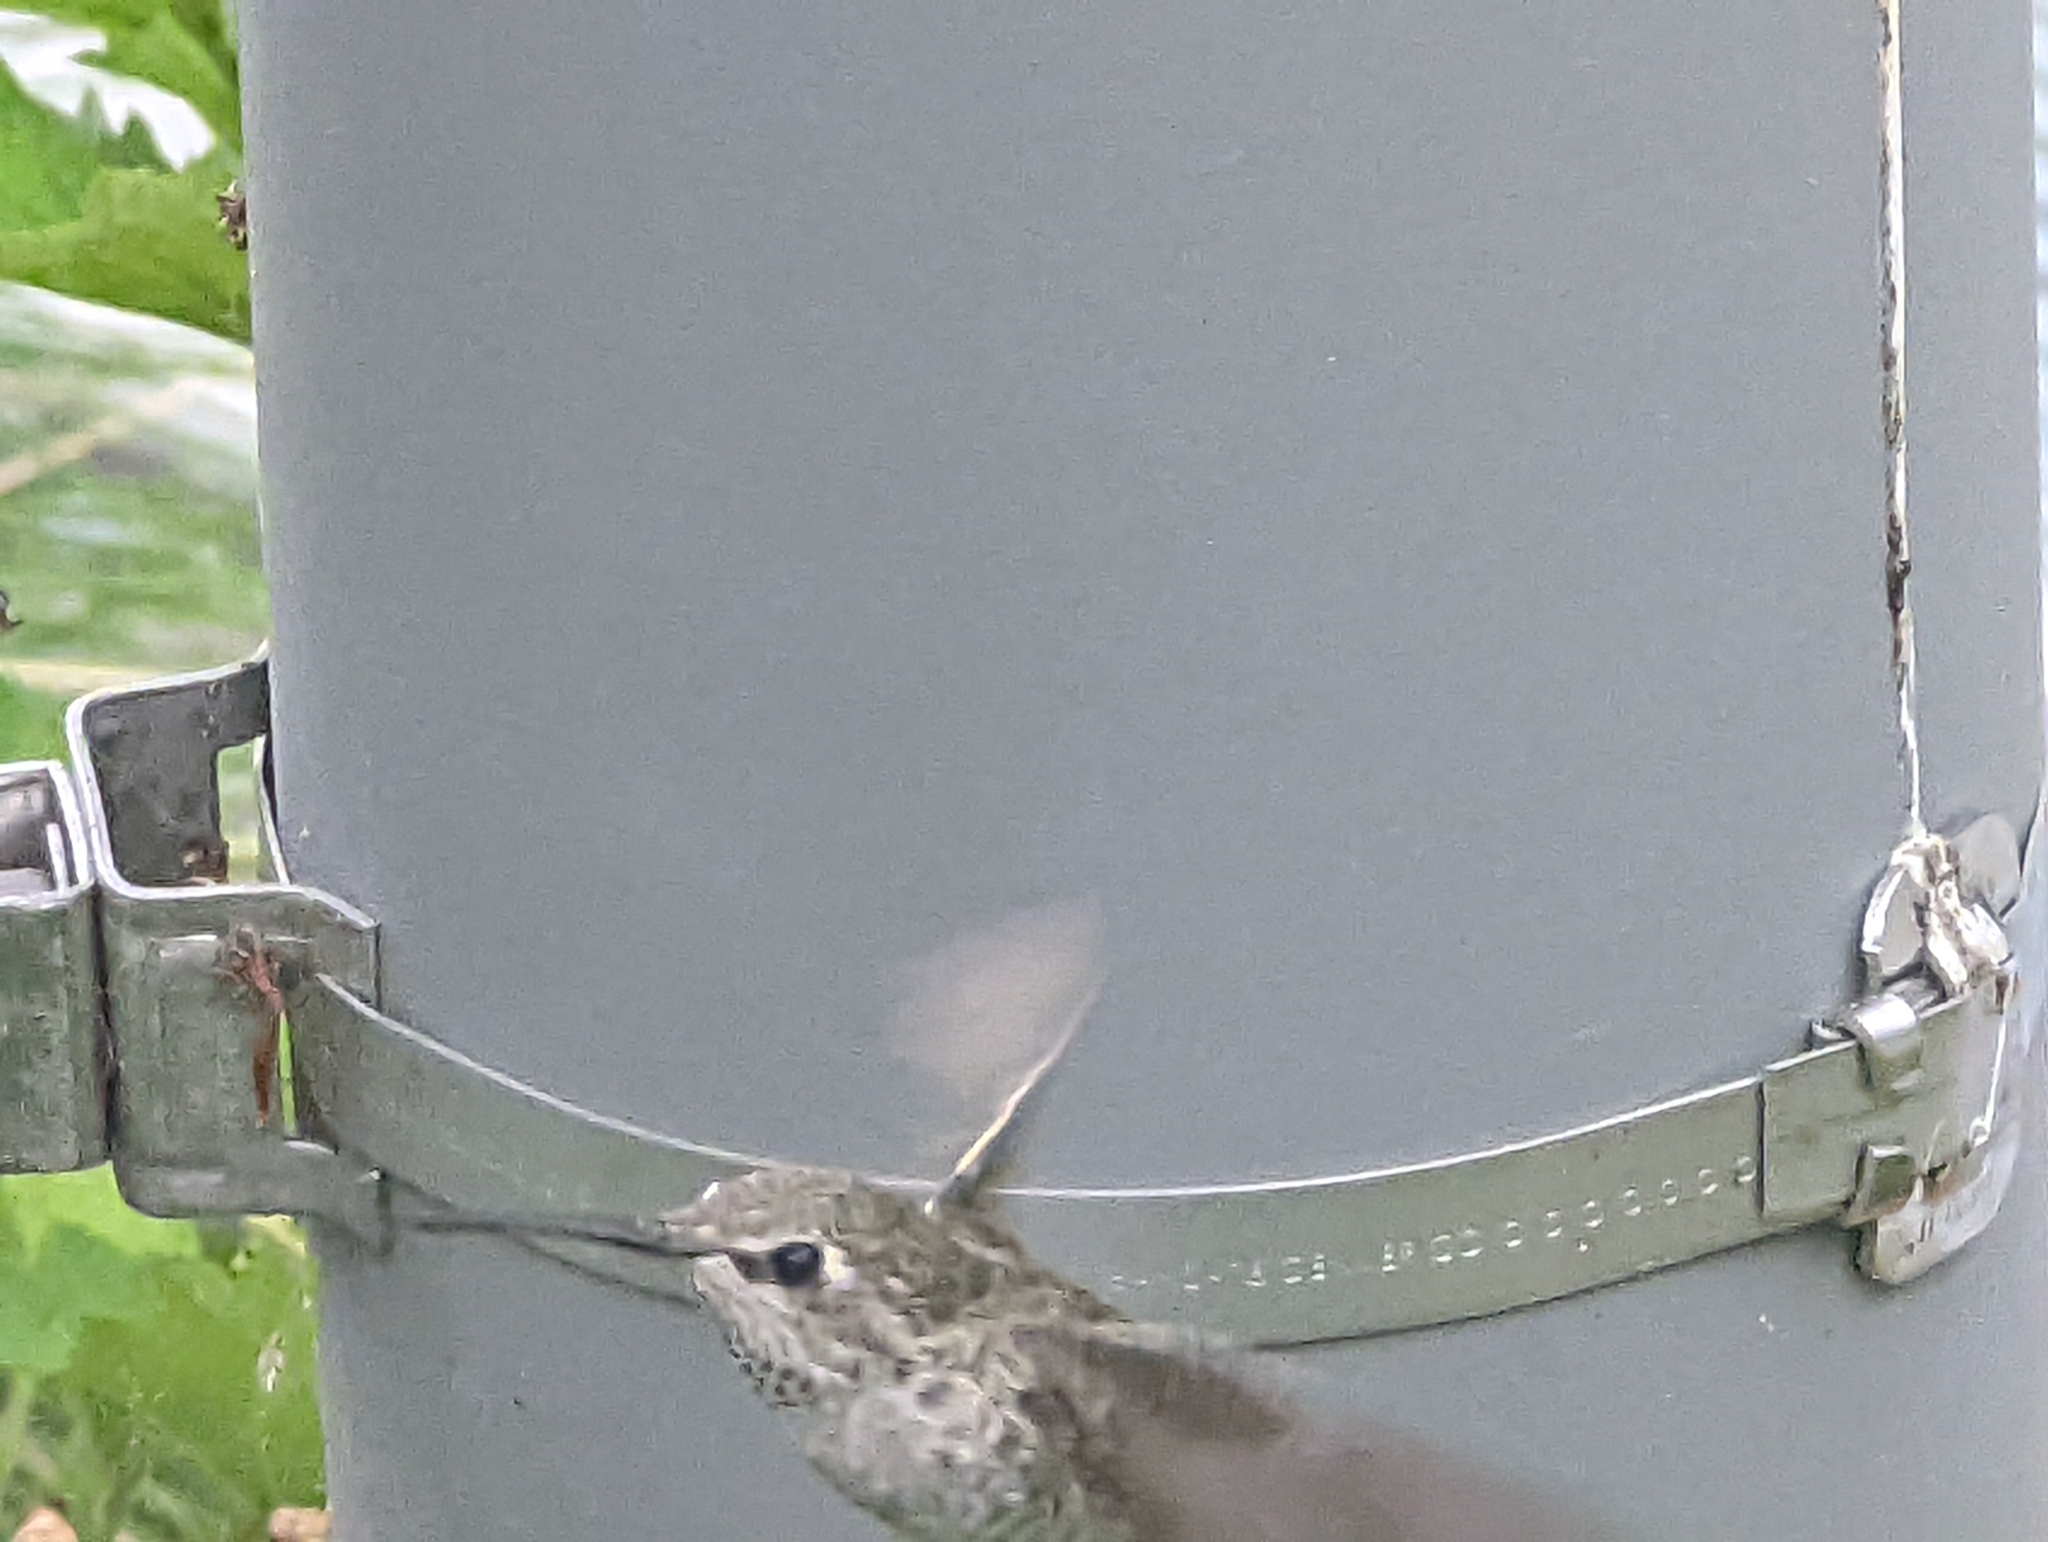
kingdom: Animalia
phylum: Chordata
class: Aves
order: Apodiformes
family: Trochilidae
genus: Calypte
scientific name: Calypte anna
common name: Anna's hummingbird
